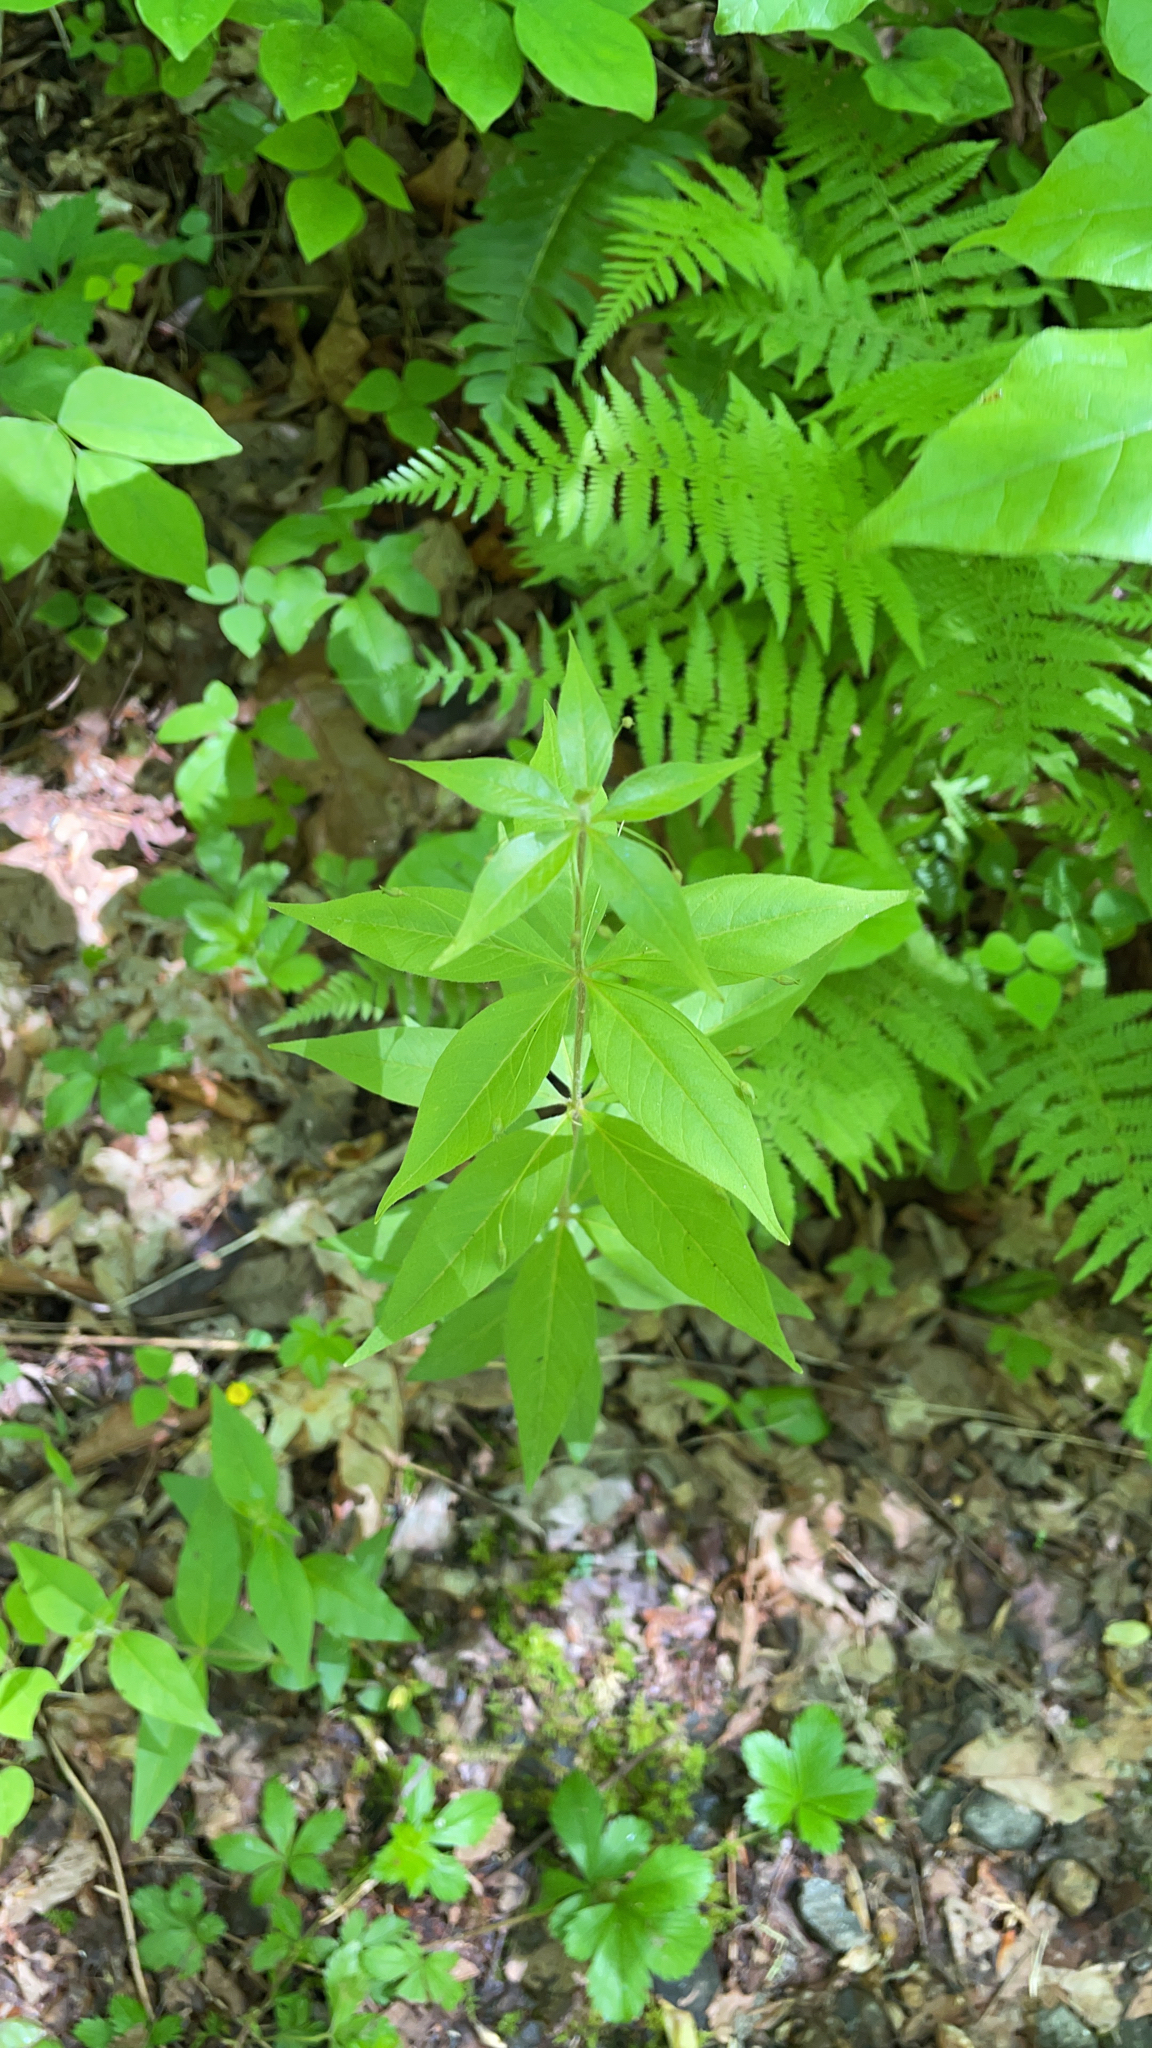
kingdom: Plantae
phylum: Tracheophyta
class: Magnoliopsida
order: Ericales
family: Primulaceae
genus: Lysimachia
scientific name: Lysimachia quadrifolia
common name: Whorled loosestrife
